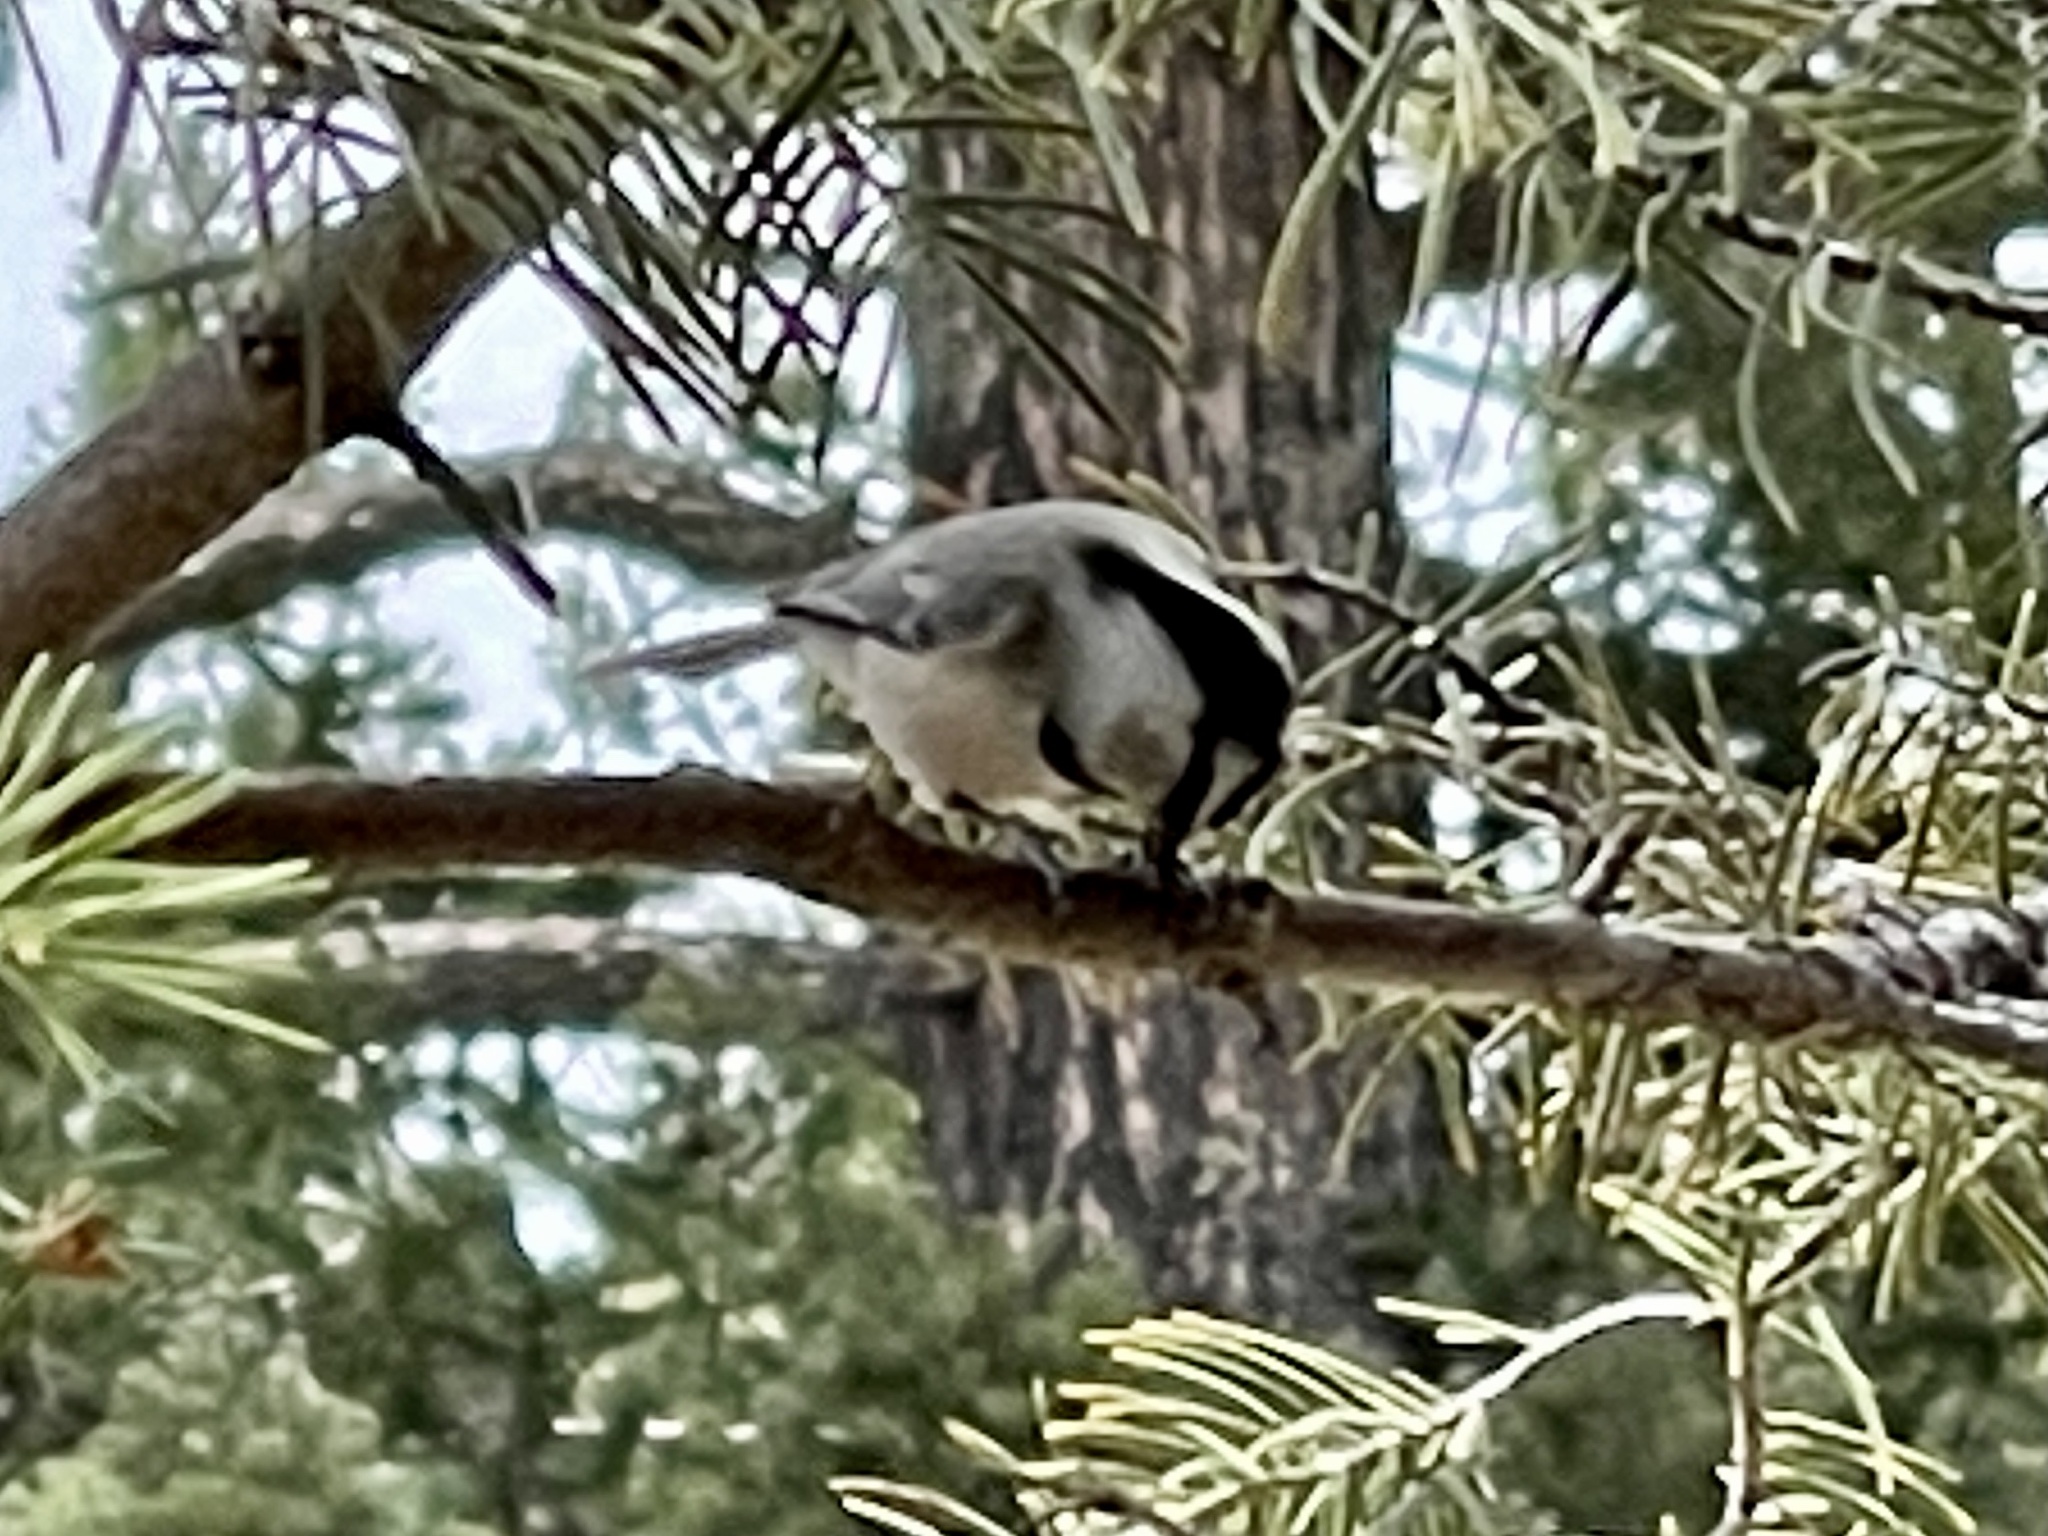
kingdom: Animalia
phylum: Chordata
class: Aves
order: Passeriformes
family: Paridae
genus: Poecile
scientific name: Poecile gambeli
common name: Mountain chickadee
